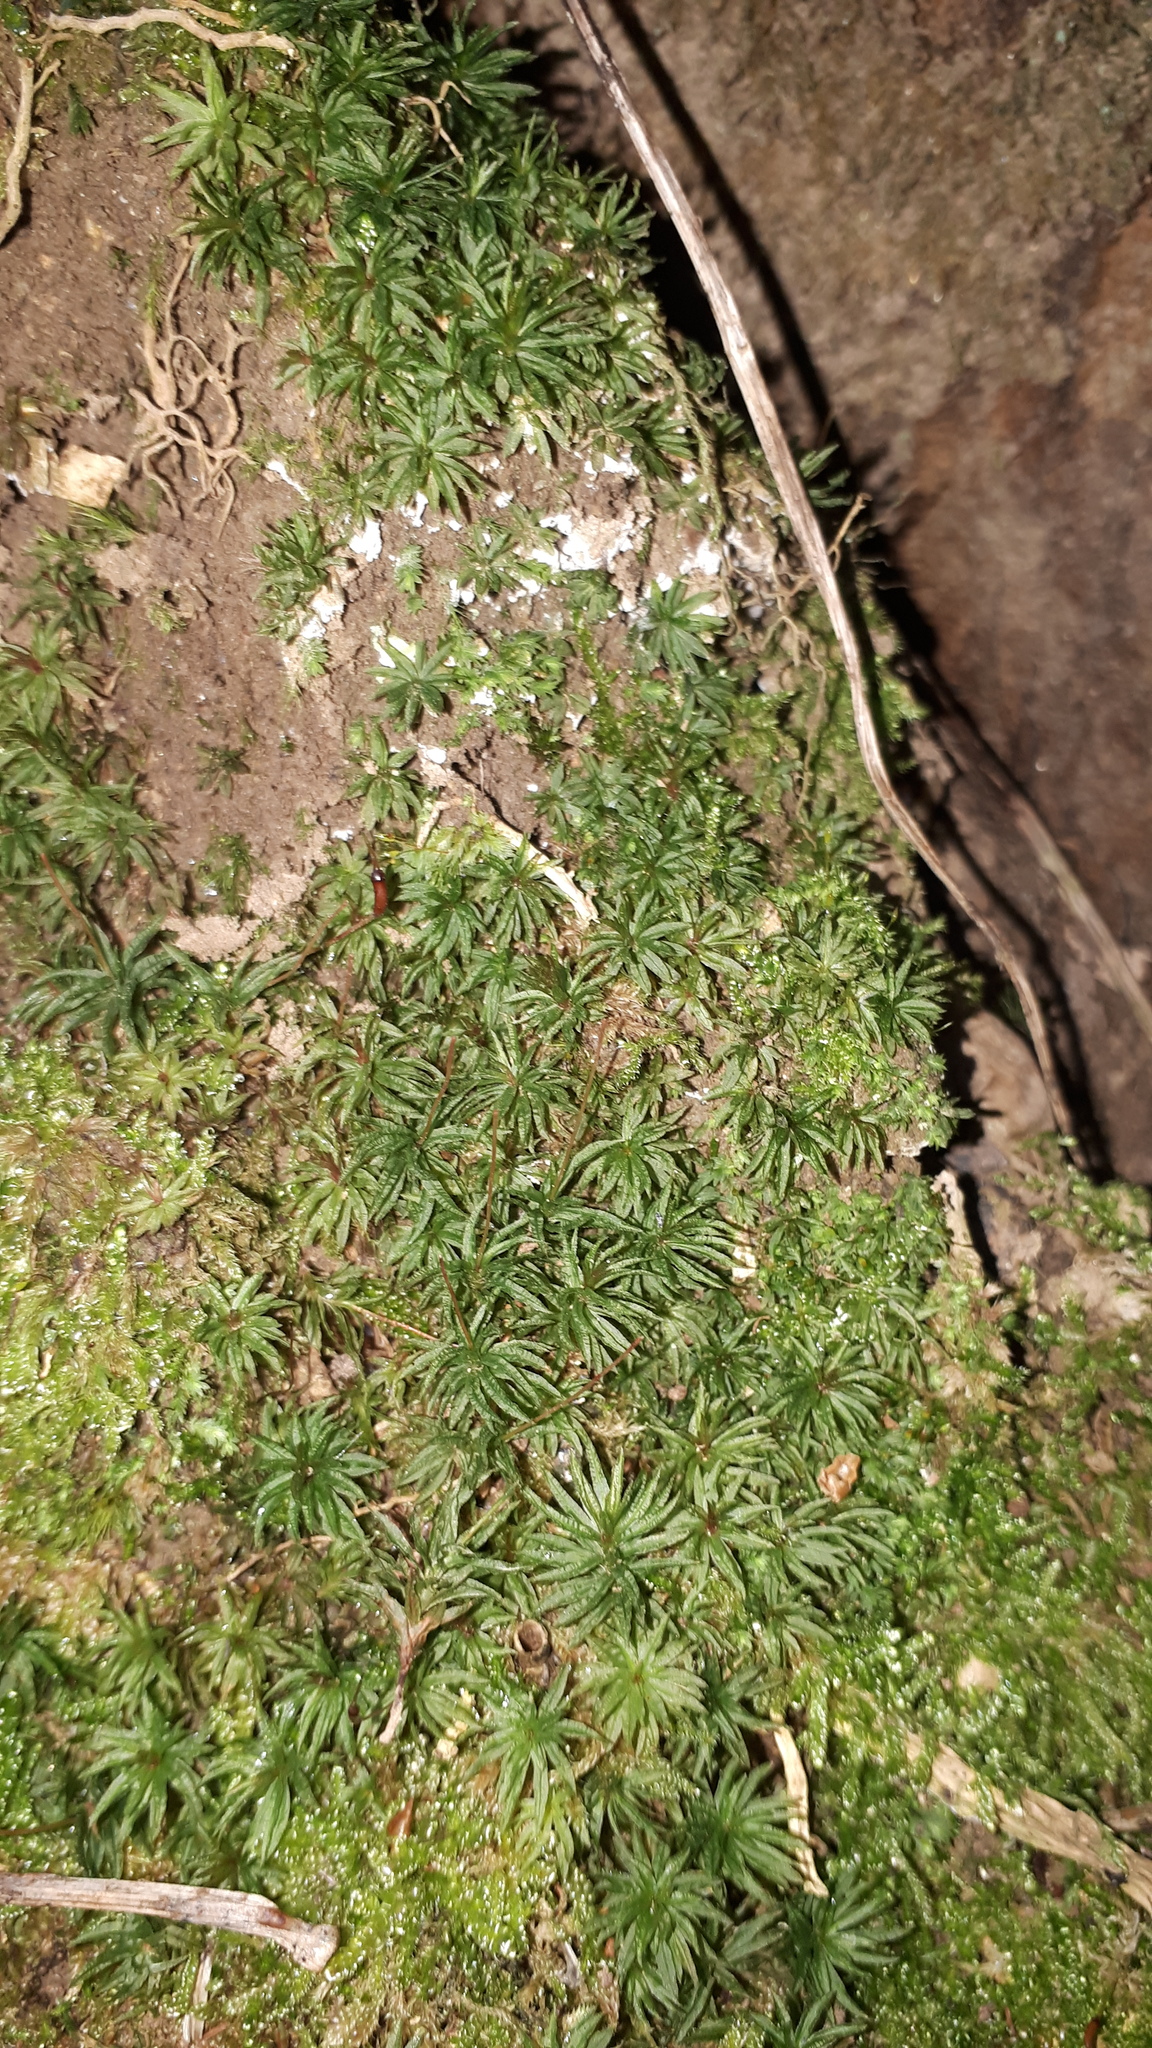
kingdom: Plantae
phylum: Bryophyta
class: Polytrichopsida
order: Polytrichales
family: Polytrichaceae
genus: Atrichum
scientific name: Atrichum undulatum
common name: Common smoothcap
